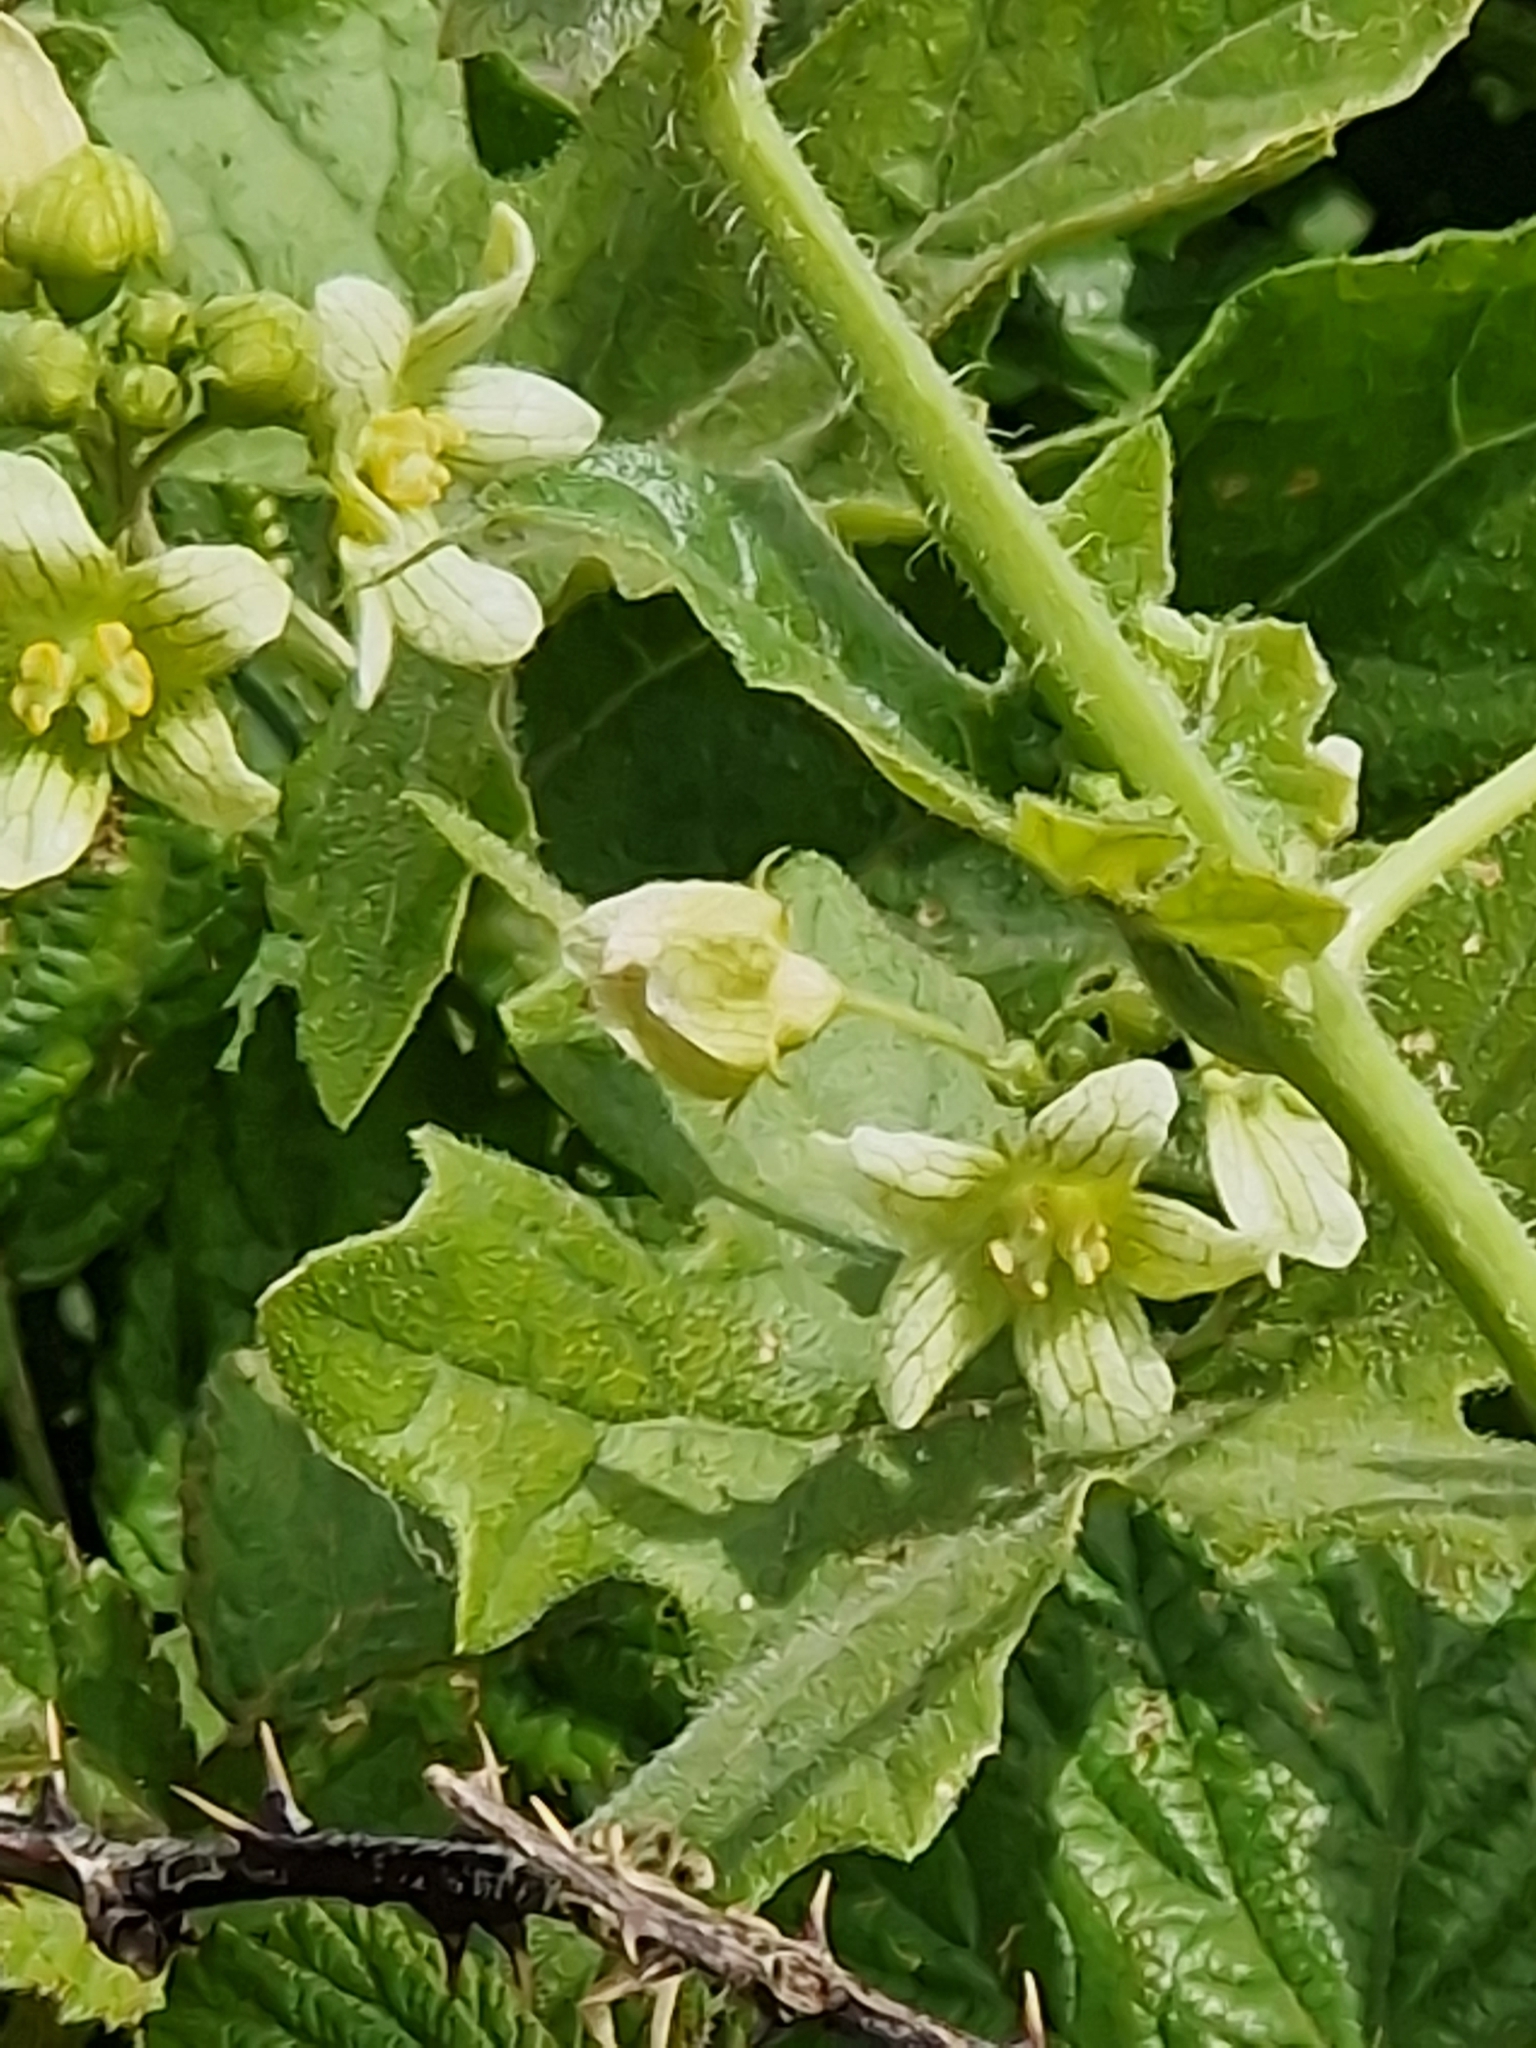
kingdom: Plantae
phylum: Tracheophyta
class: Magnoliopsida
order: Cucurbitales
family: Cucurbitaceae
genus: Bryonia
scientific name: Bryonia dioica
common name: White bryony
